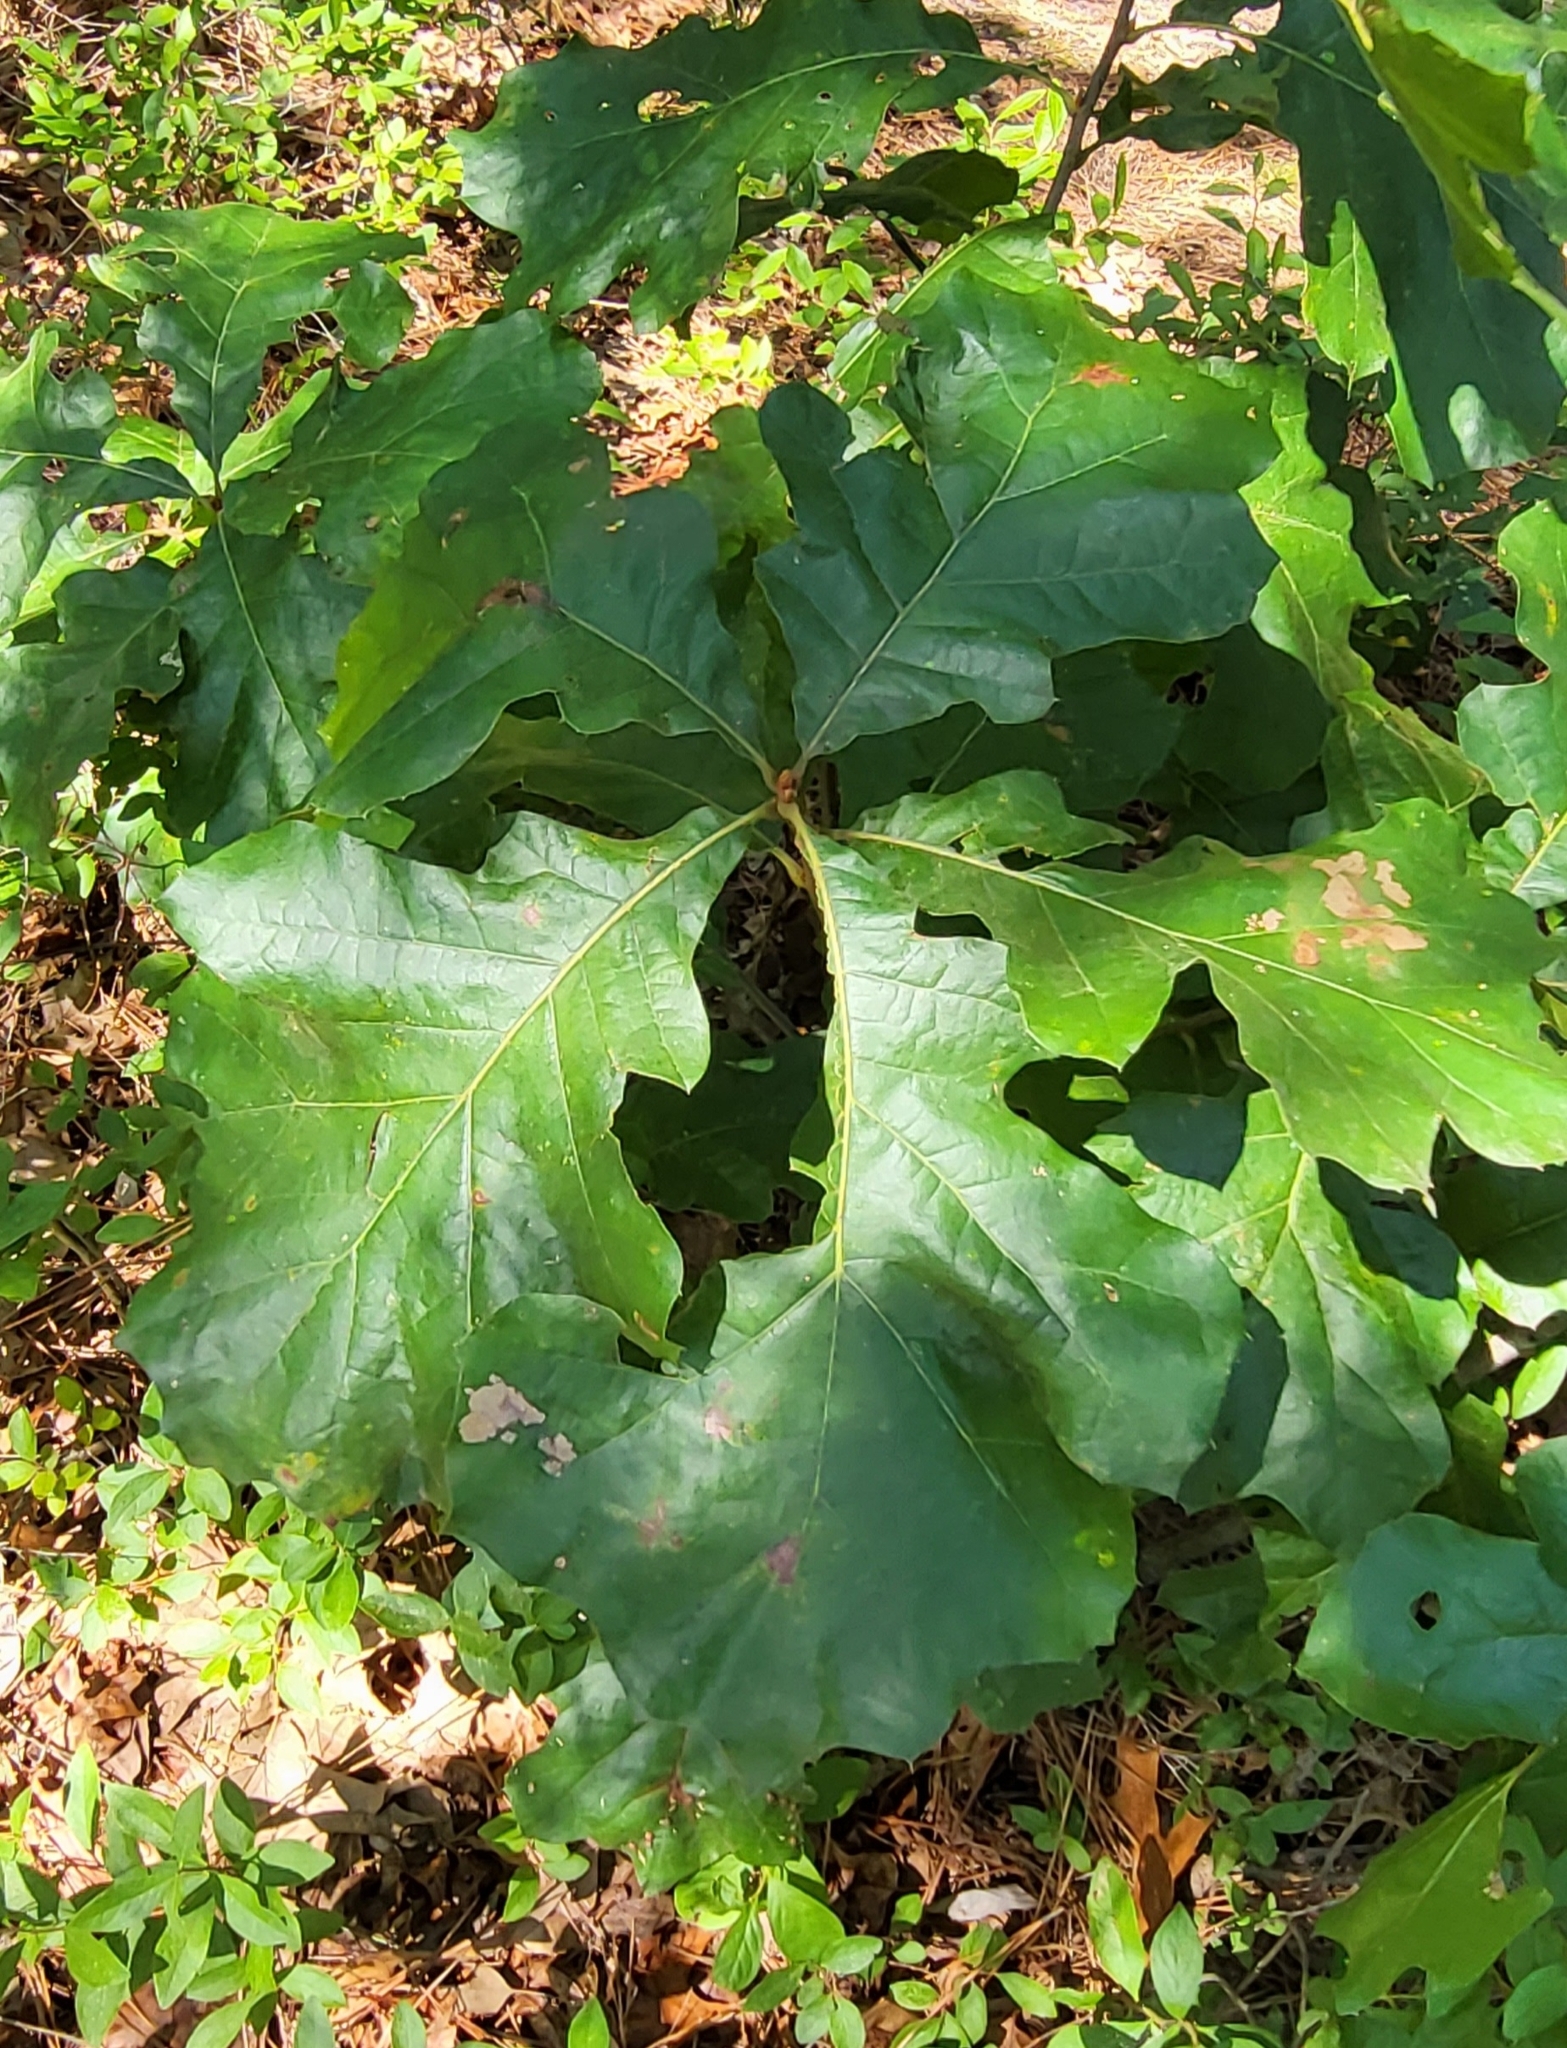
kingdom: Animalia
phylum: Arthropoda
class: Insecta
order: Diptera
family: Cecidomyiidae
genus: Polystepha
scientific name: Polystepha pilulae
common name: Oak leaf gall midge
